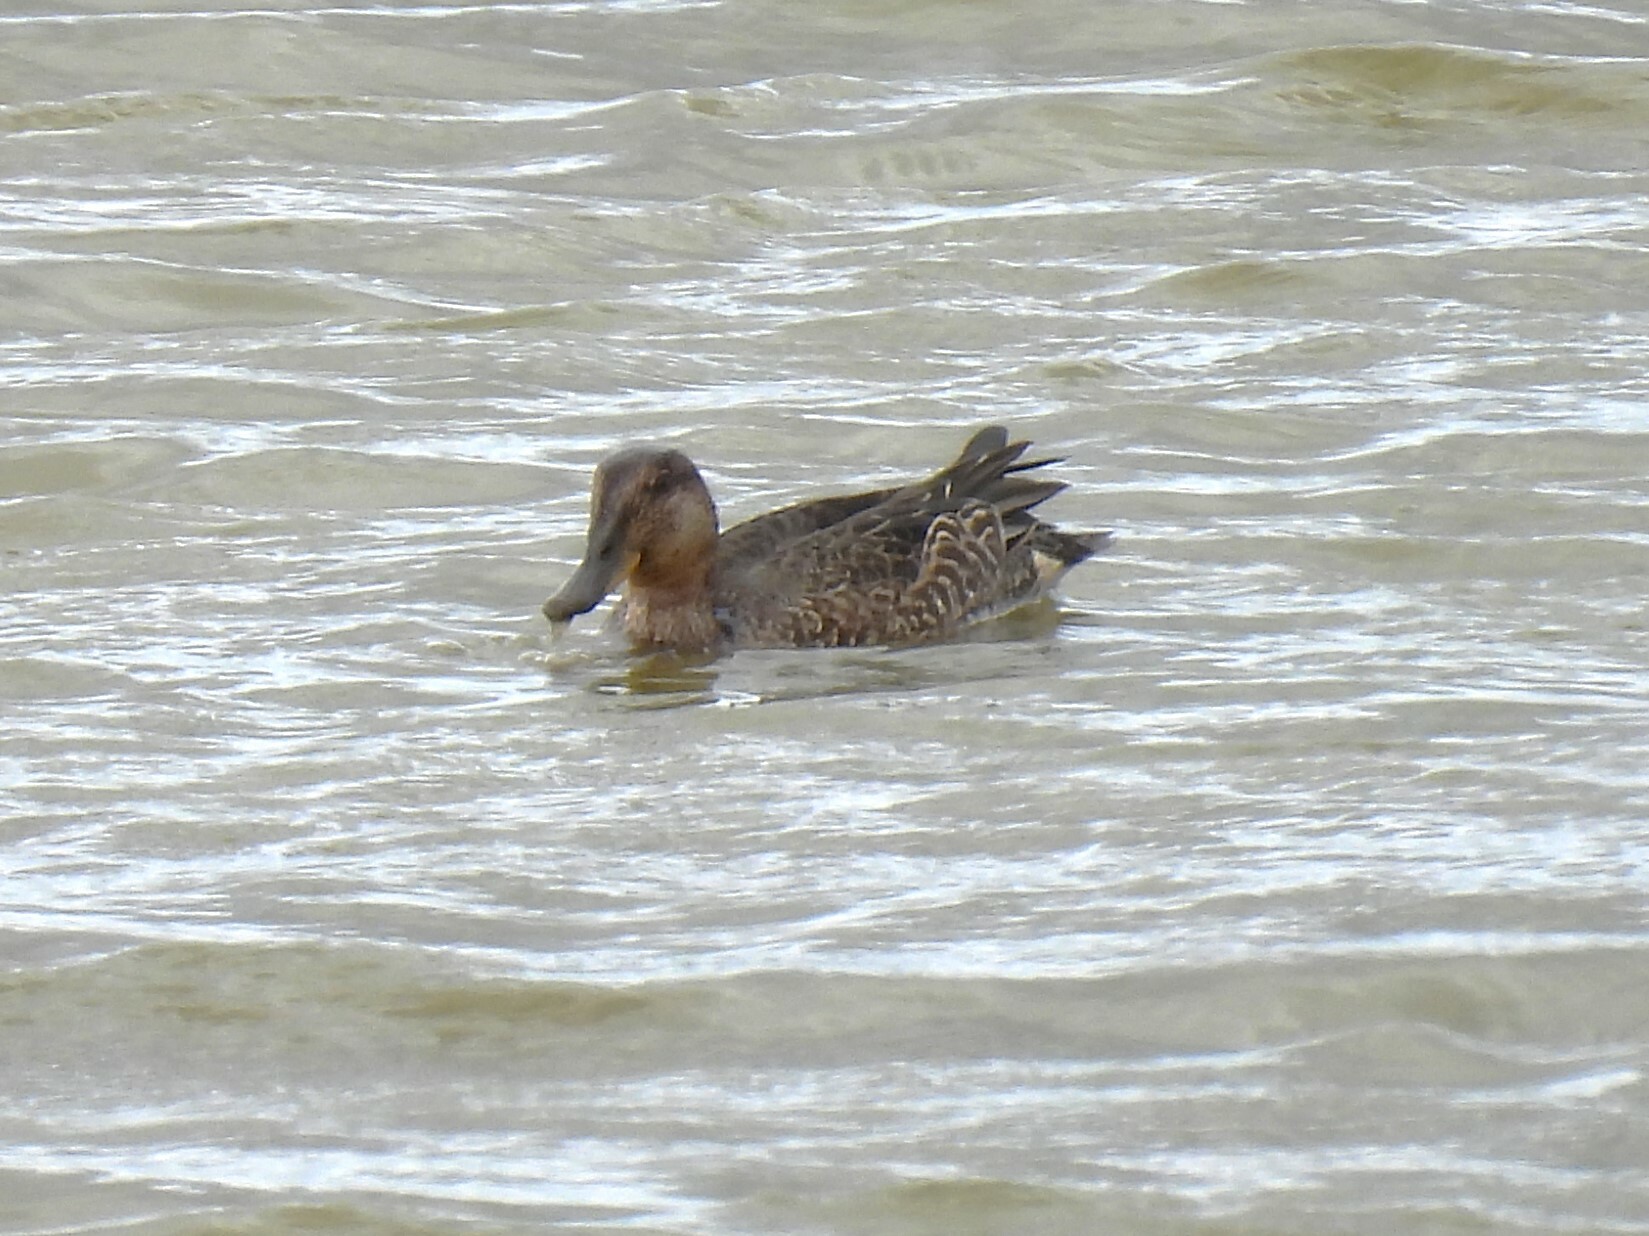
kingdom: Animalia
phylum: Chordata
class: Aves
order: Anseriformes
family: Anatidae
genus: Anas
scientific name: Anas crecca
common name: Eurasian teal
